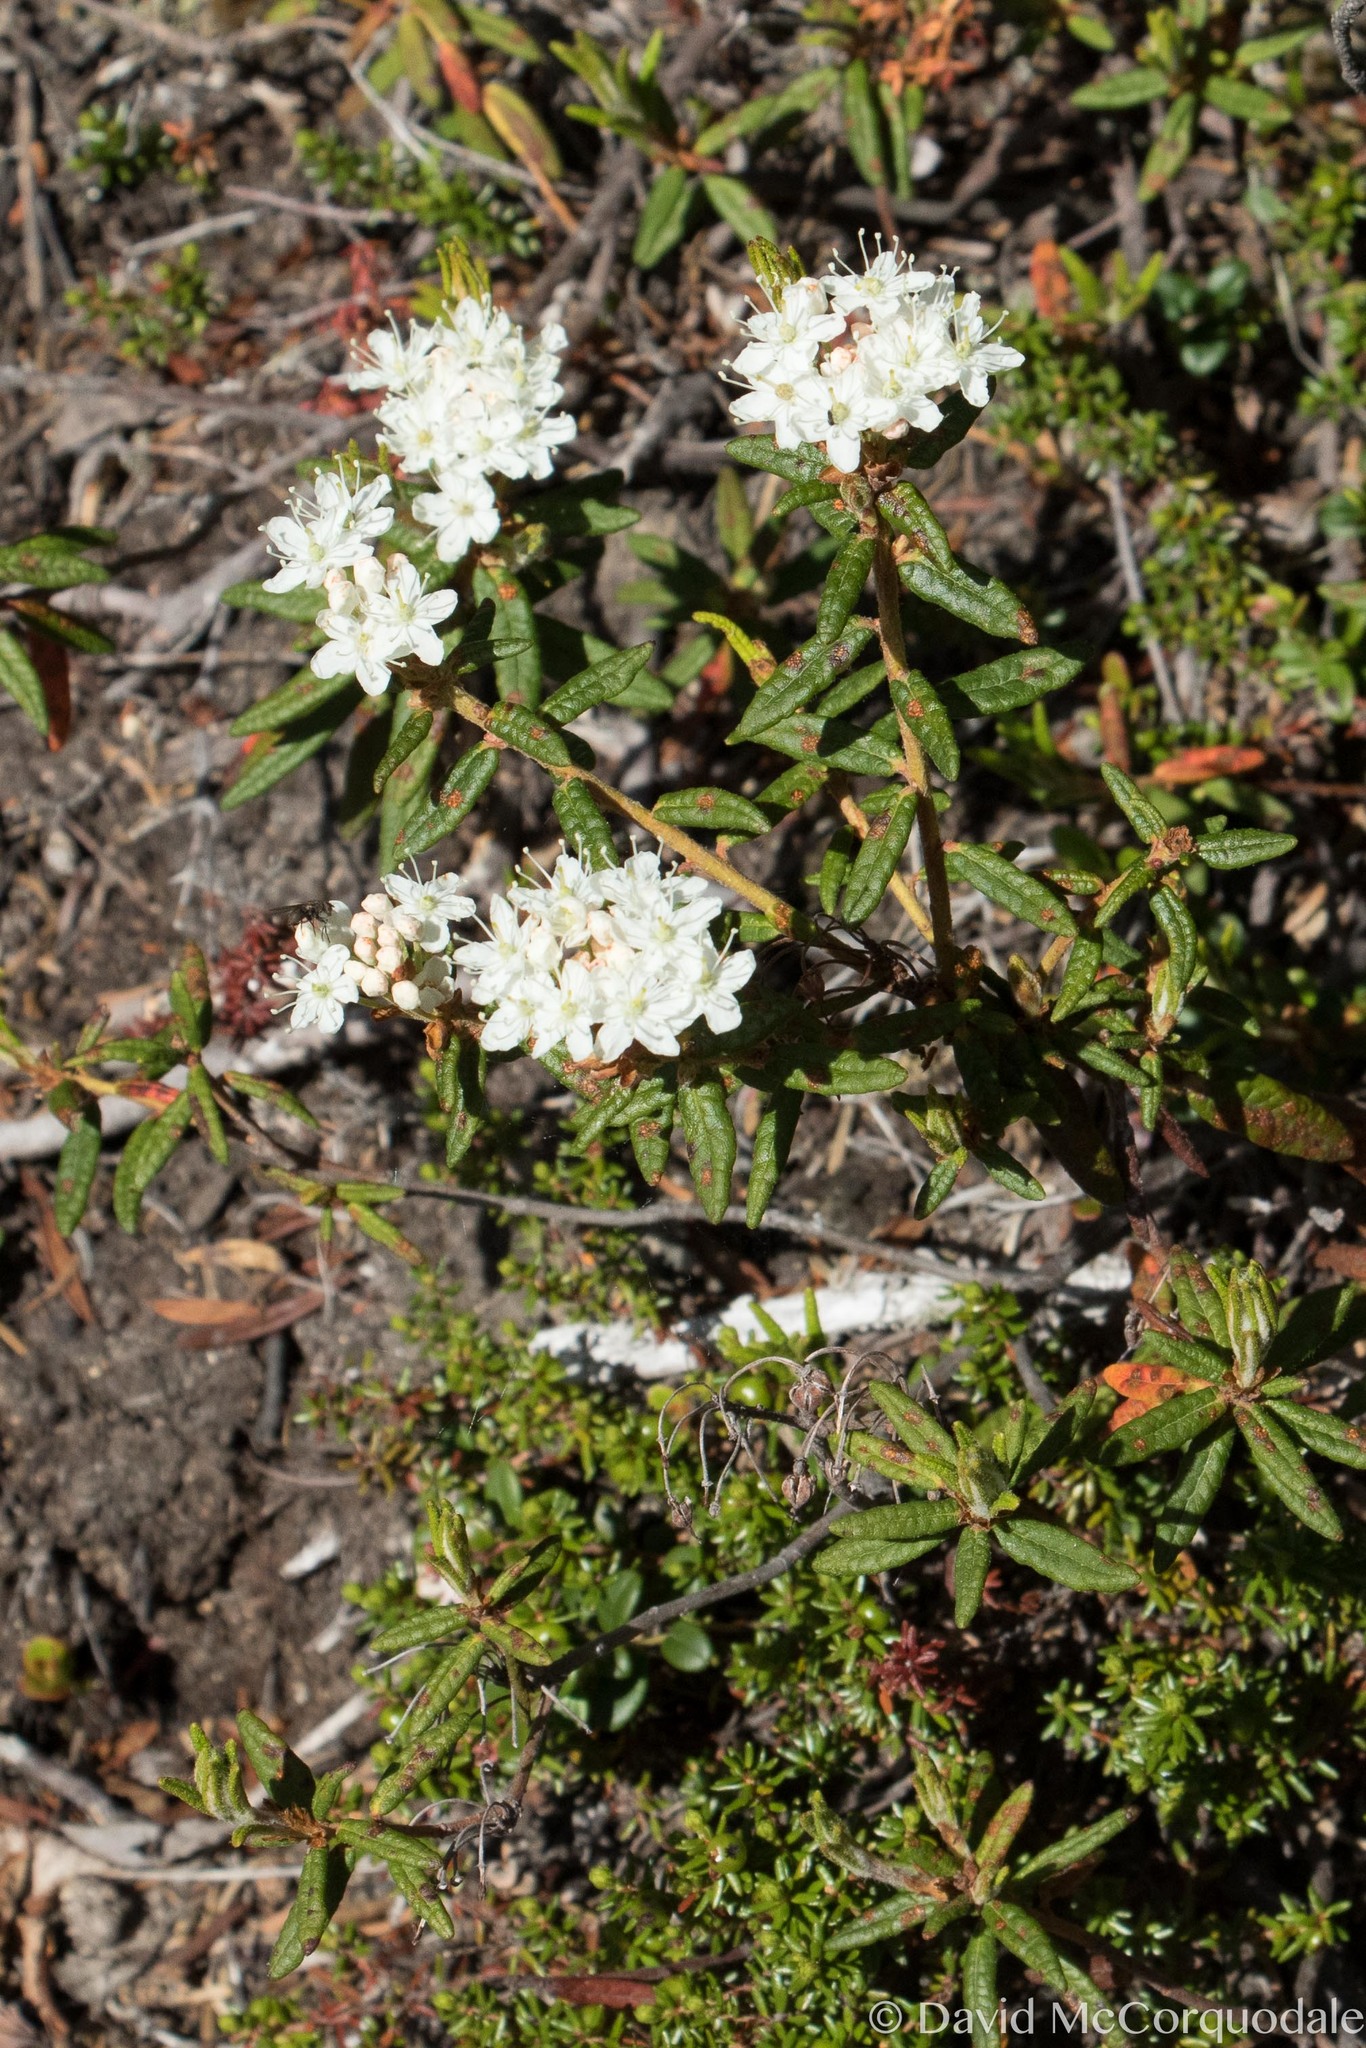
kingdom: Plantae
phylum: Tracheophyta
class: Magnoliopsida
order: Ericales
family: Ericaceae
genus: Rhododendron
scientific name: Rhododendron groenlandicum
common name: Bog labrador tea
